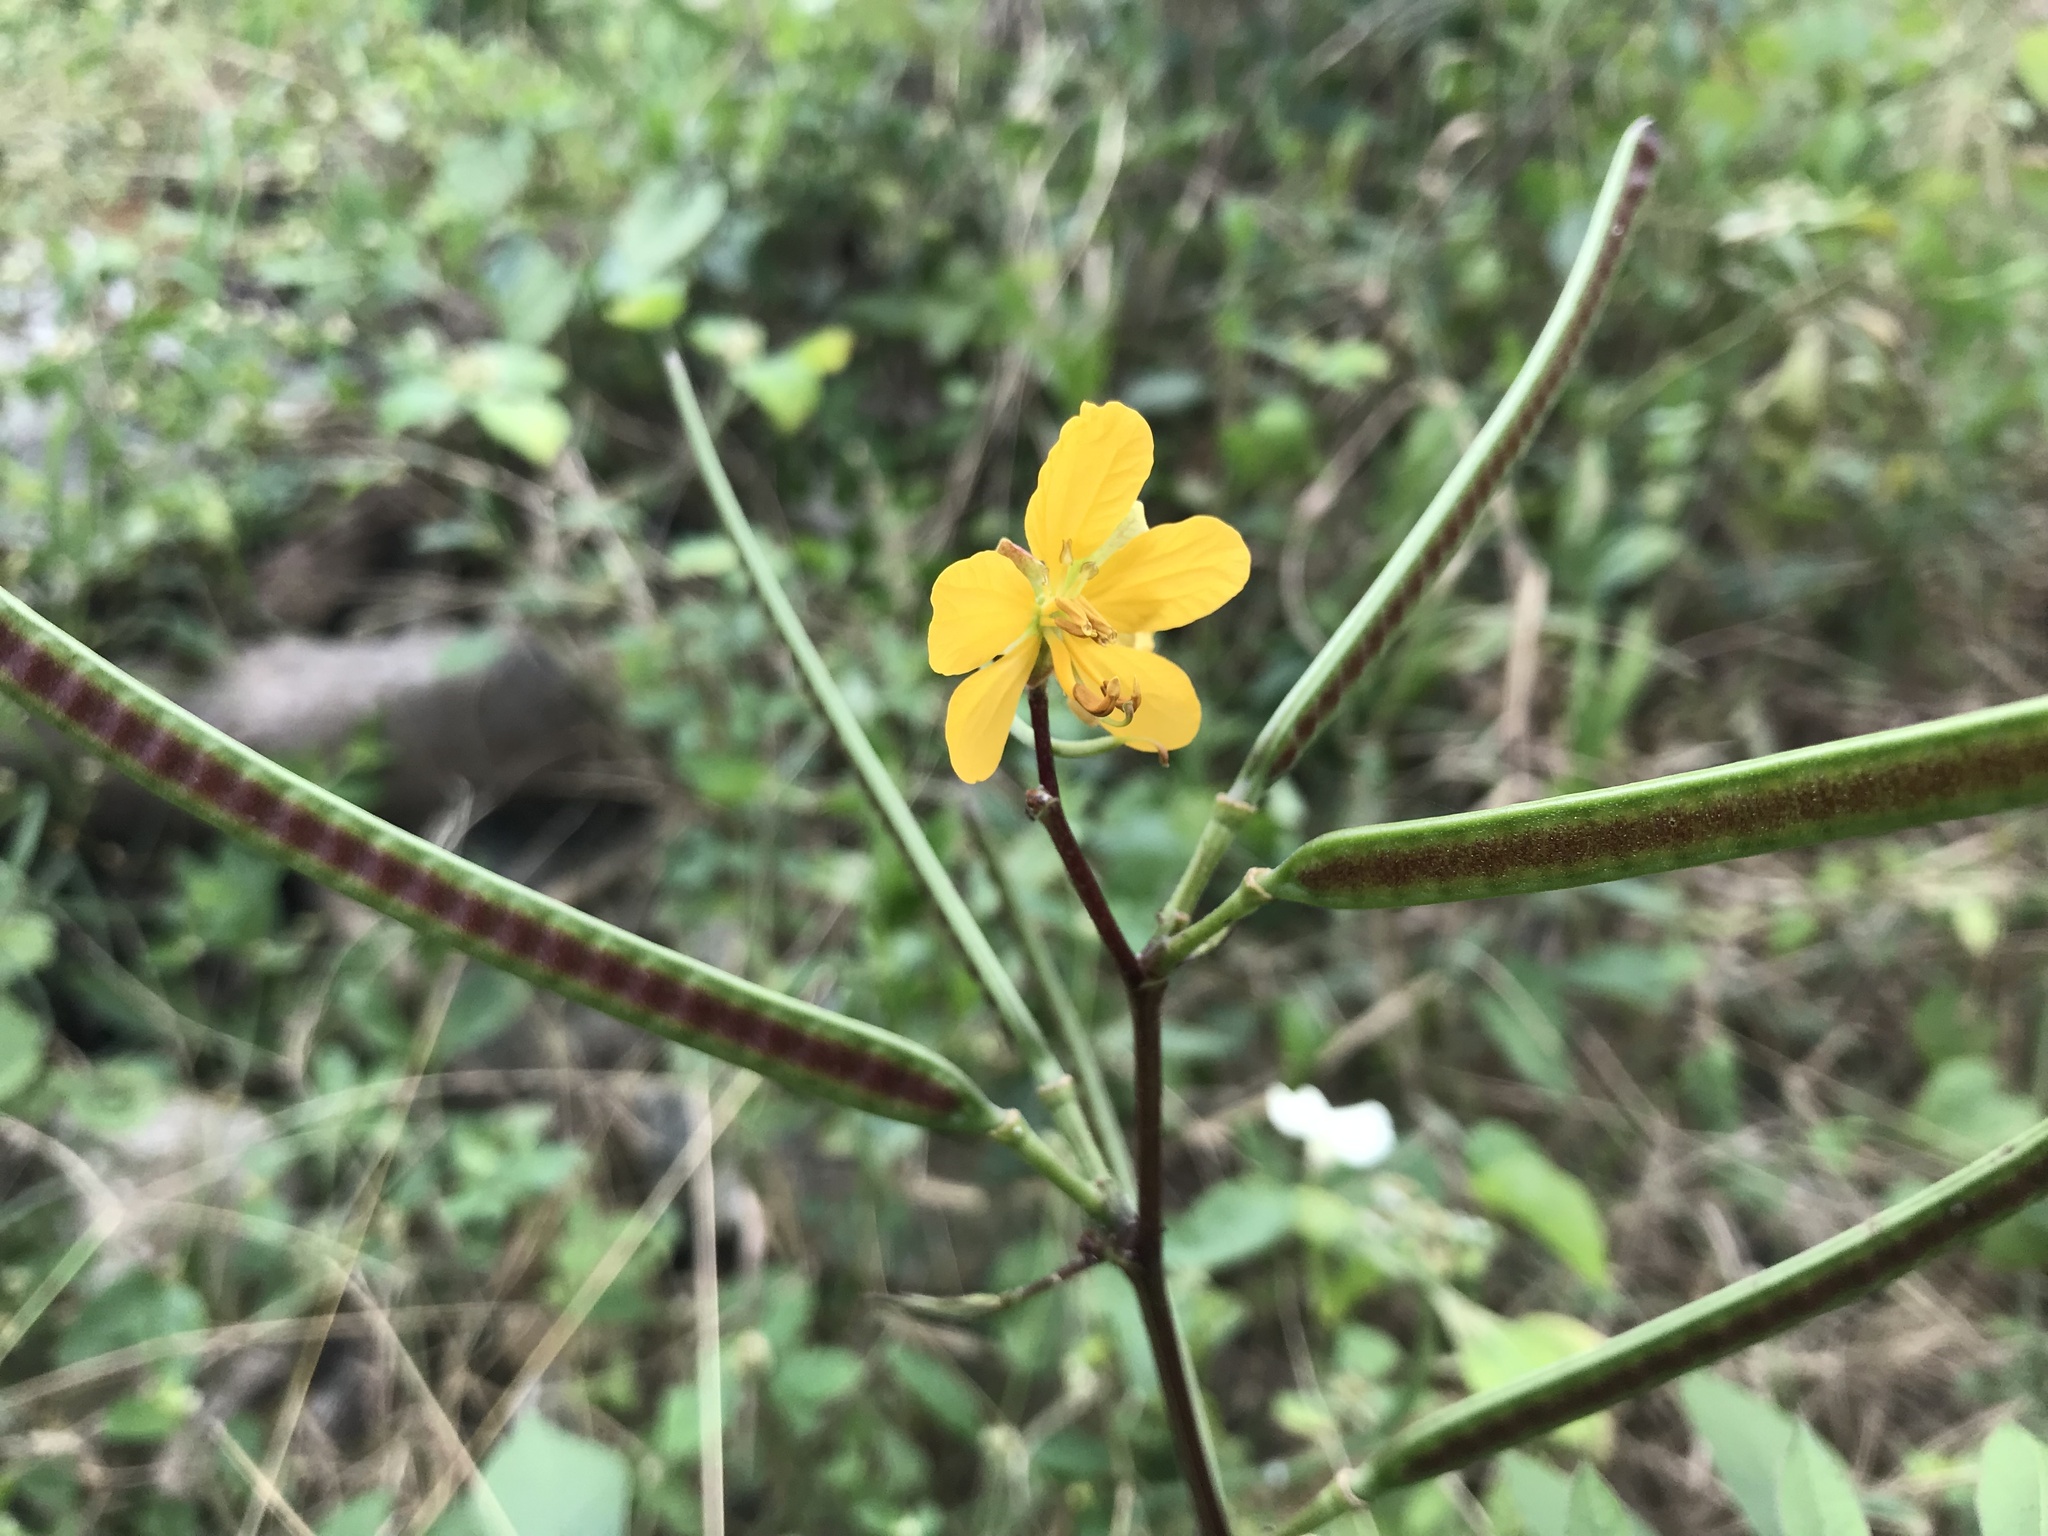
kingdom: Plantae
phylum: Tracheophyta
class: Magnoliopsida
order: Fabales
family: Fabaceae
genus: Senna
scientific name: Senna occidentalis
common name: Septicweed
